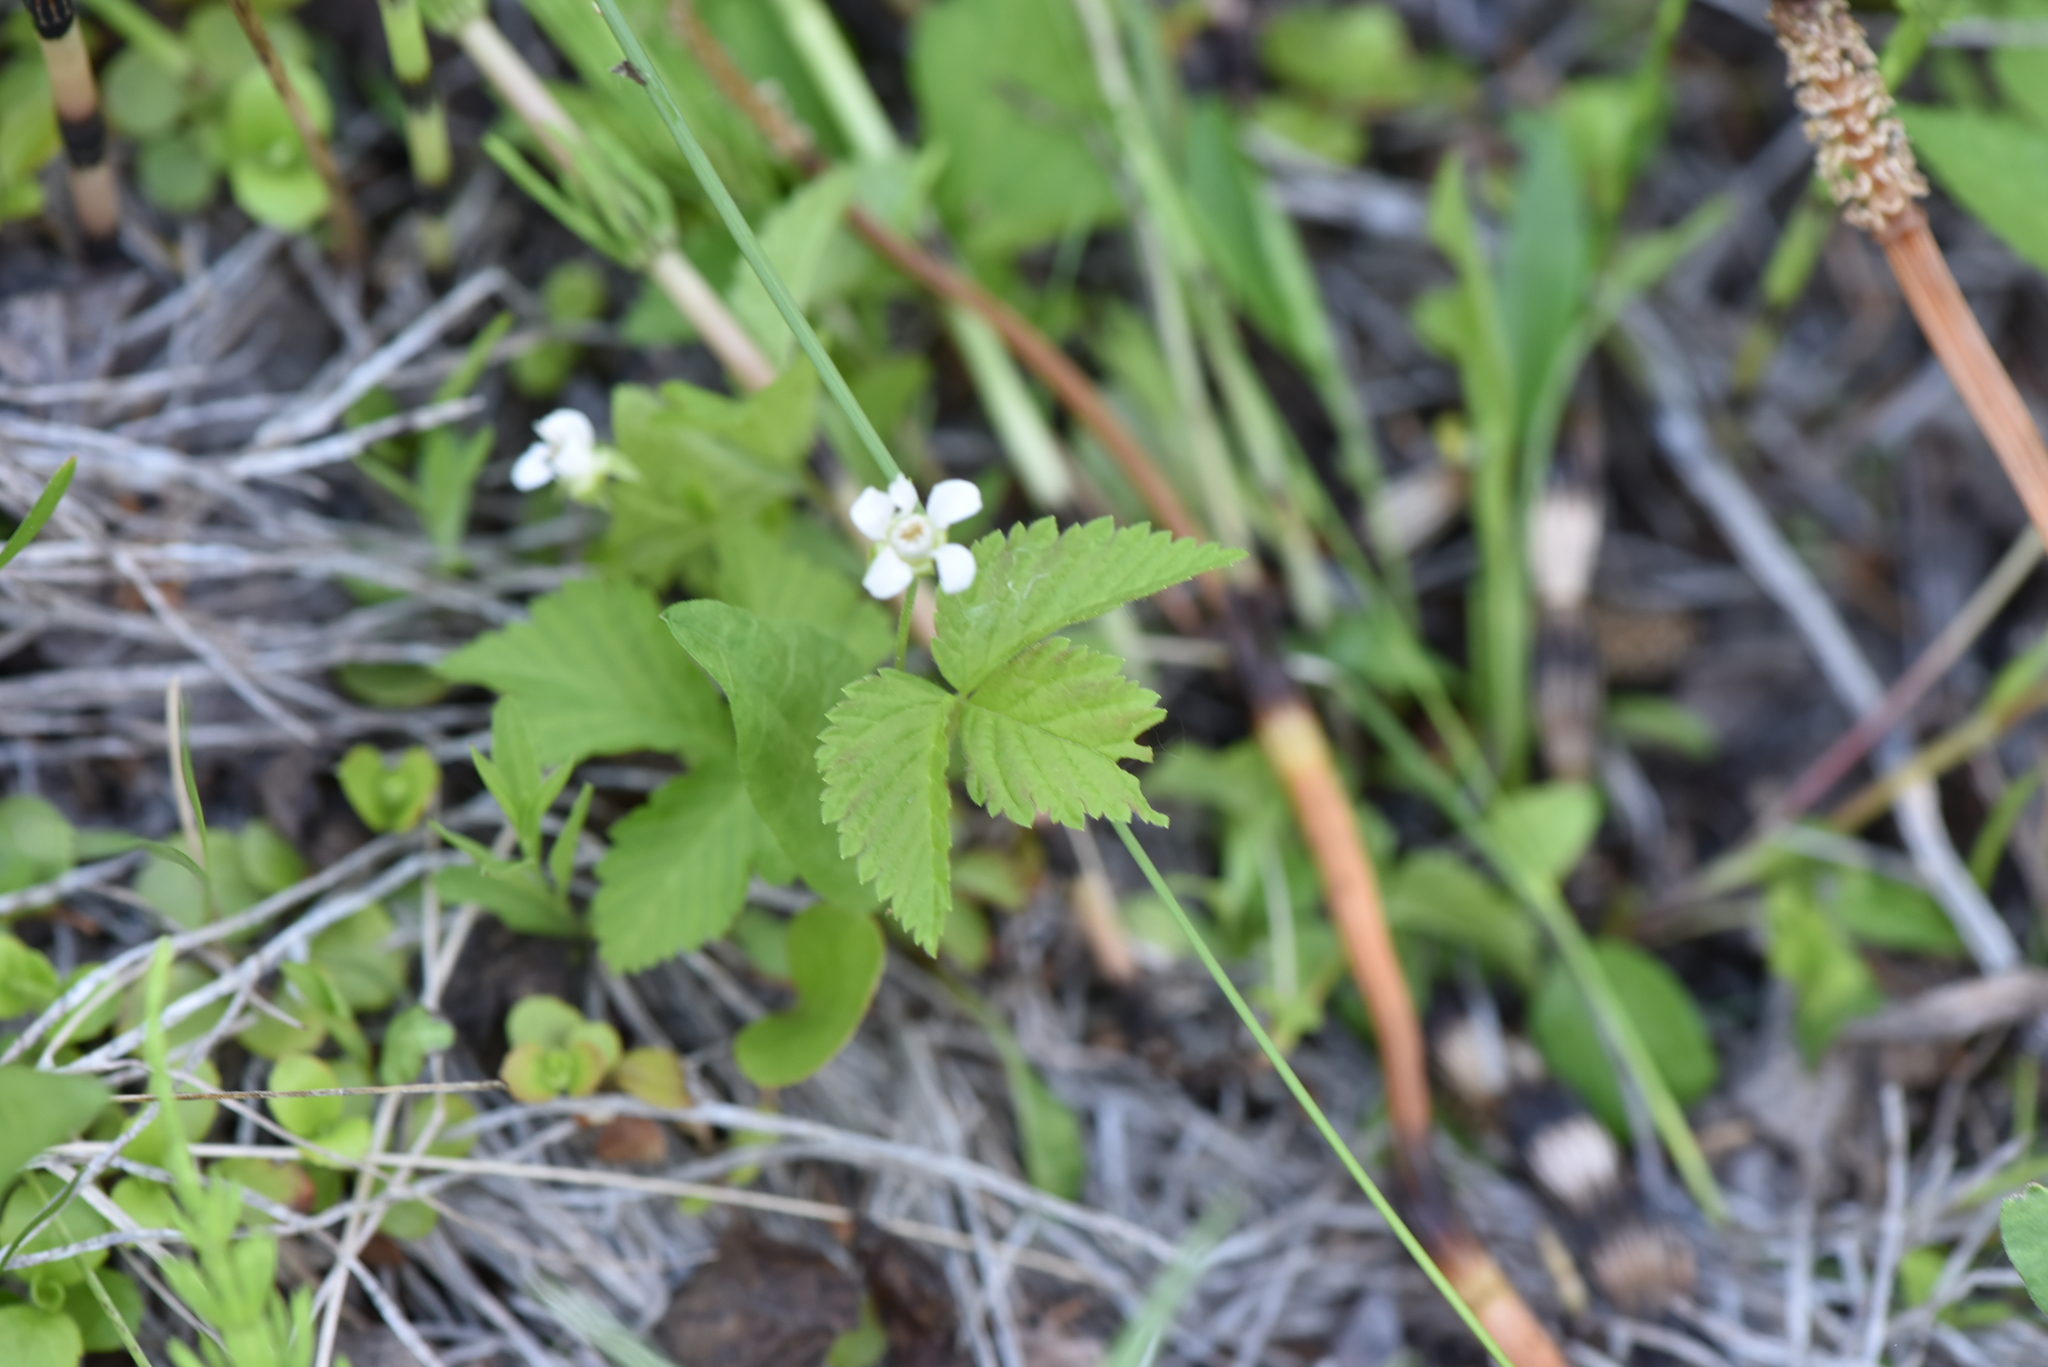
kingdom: Plantae
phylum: Tracheophyta
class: Magnoliopsida
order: Rosales
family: Rosaceae
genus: Rubus
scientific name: Rubus pubescens
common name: Dwarf raspberry
